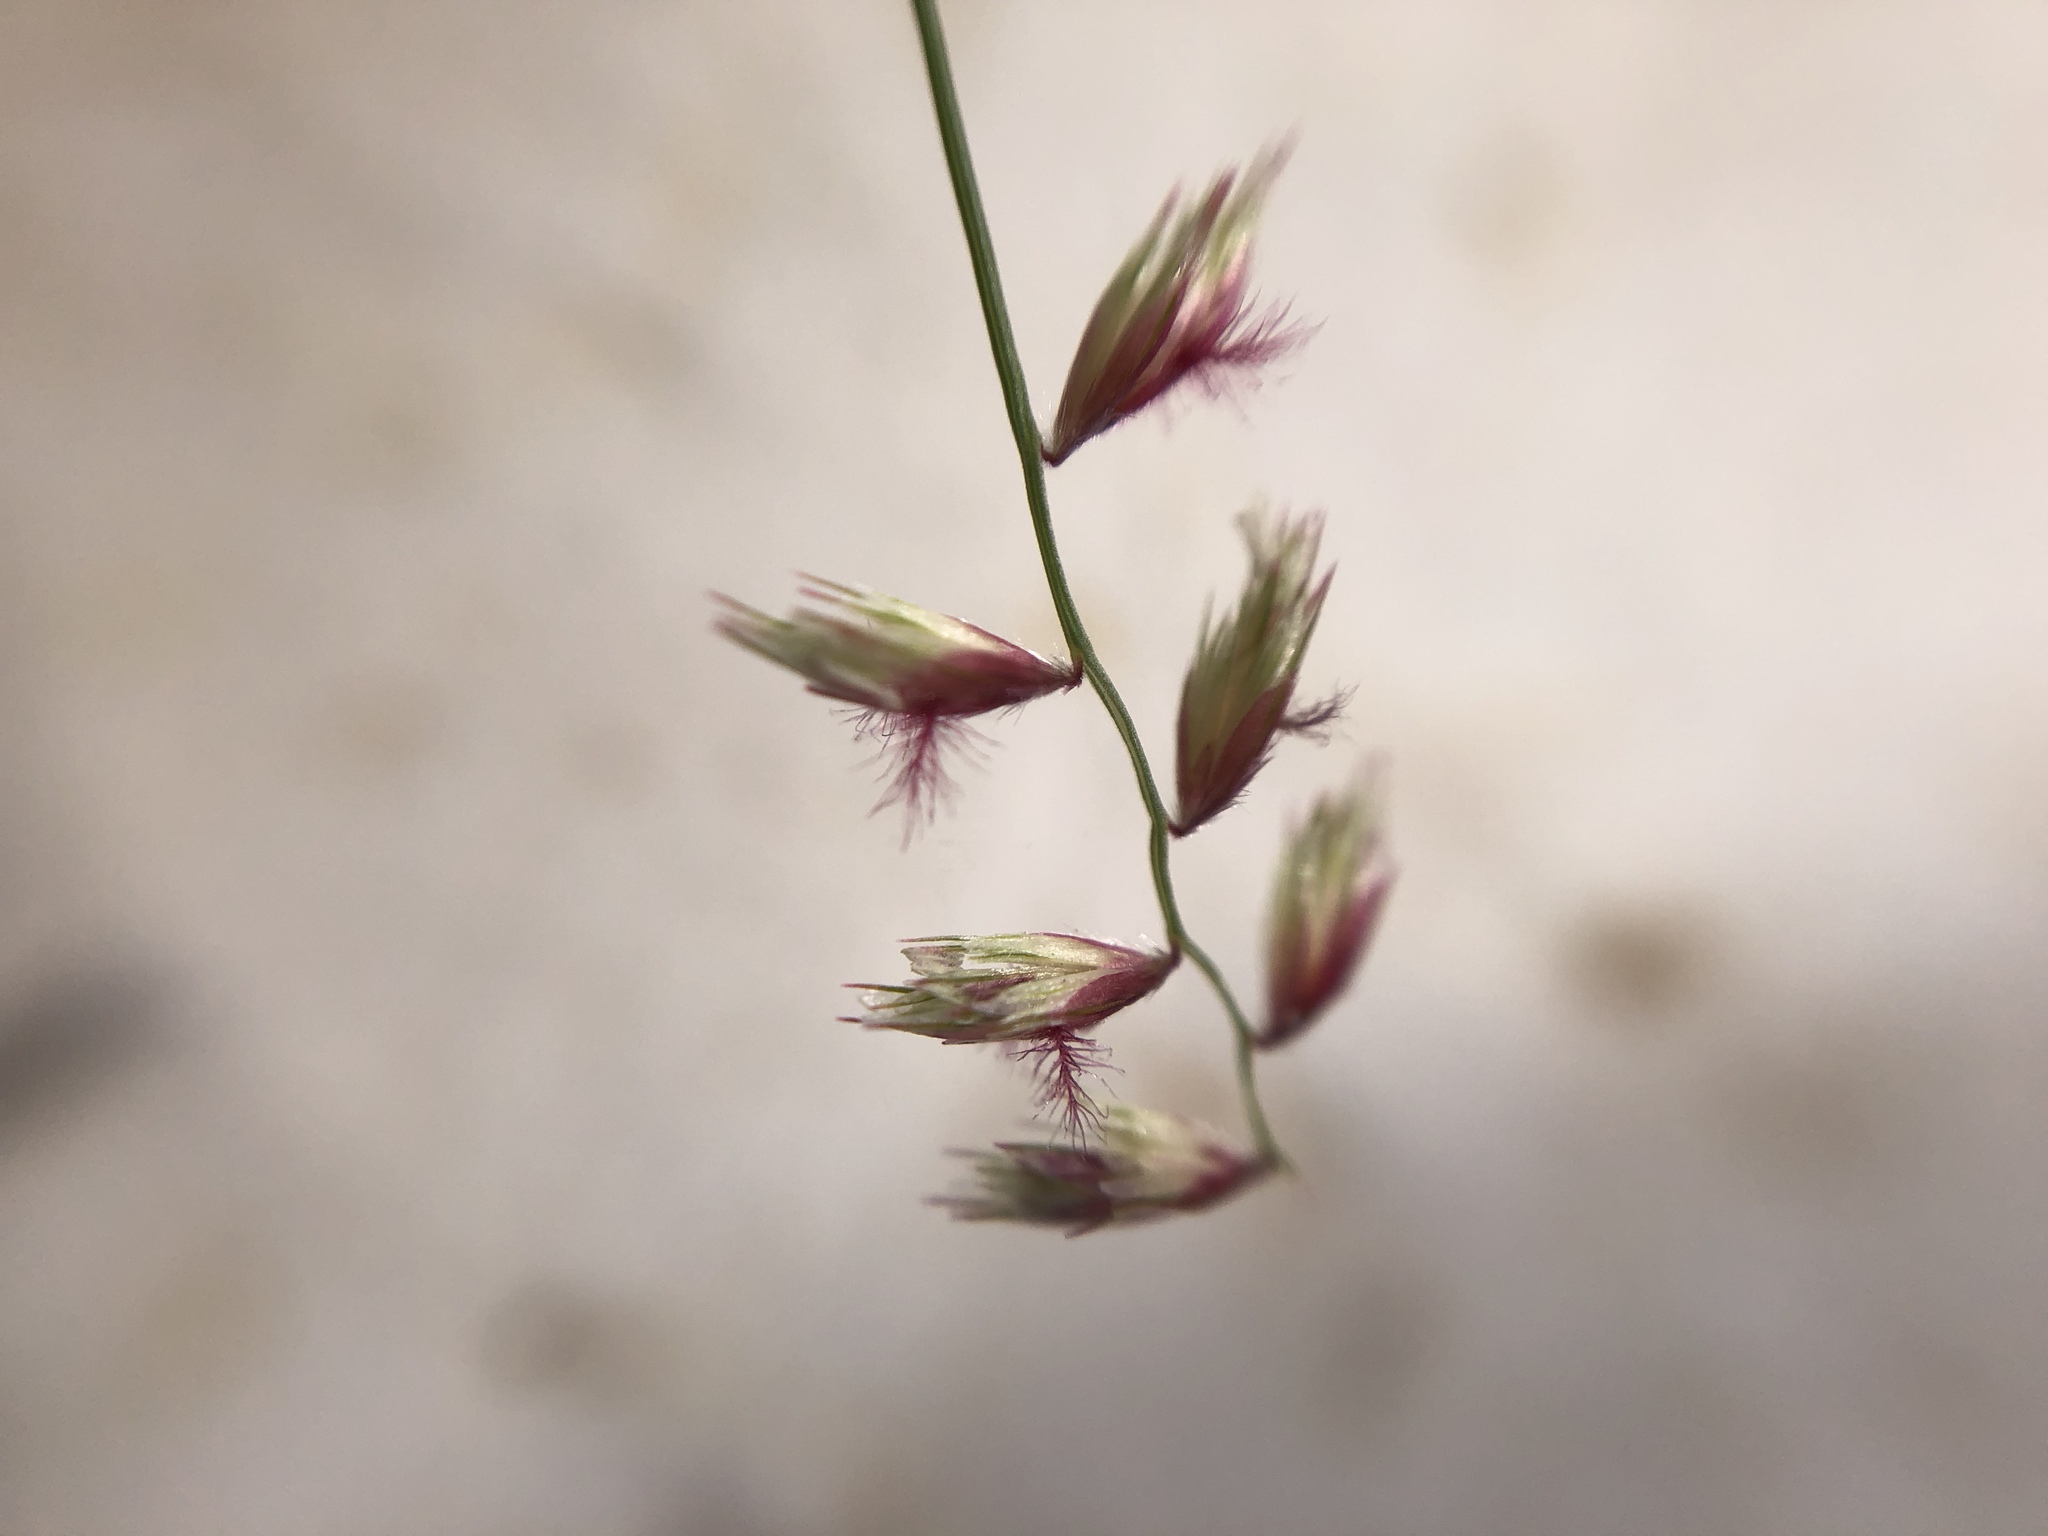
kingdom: Plantae
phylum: Tracheophyta
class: Liliopsida
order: Poales
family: Poaceae
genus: Bouteloua
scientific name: Bouteloua diversispicula
